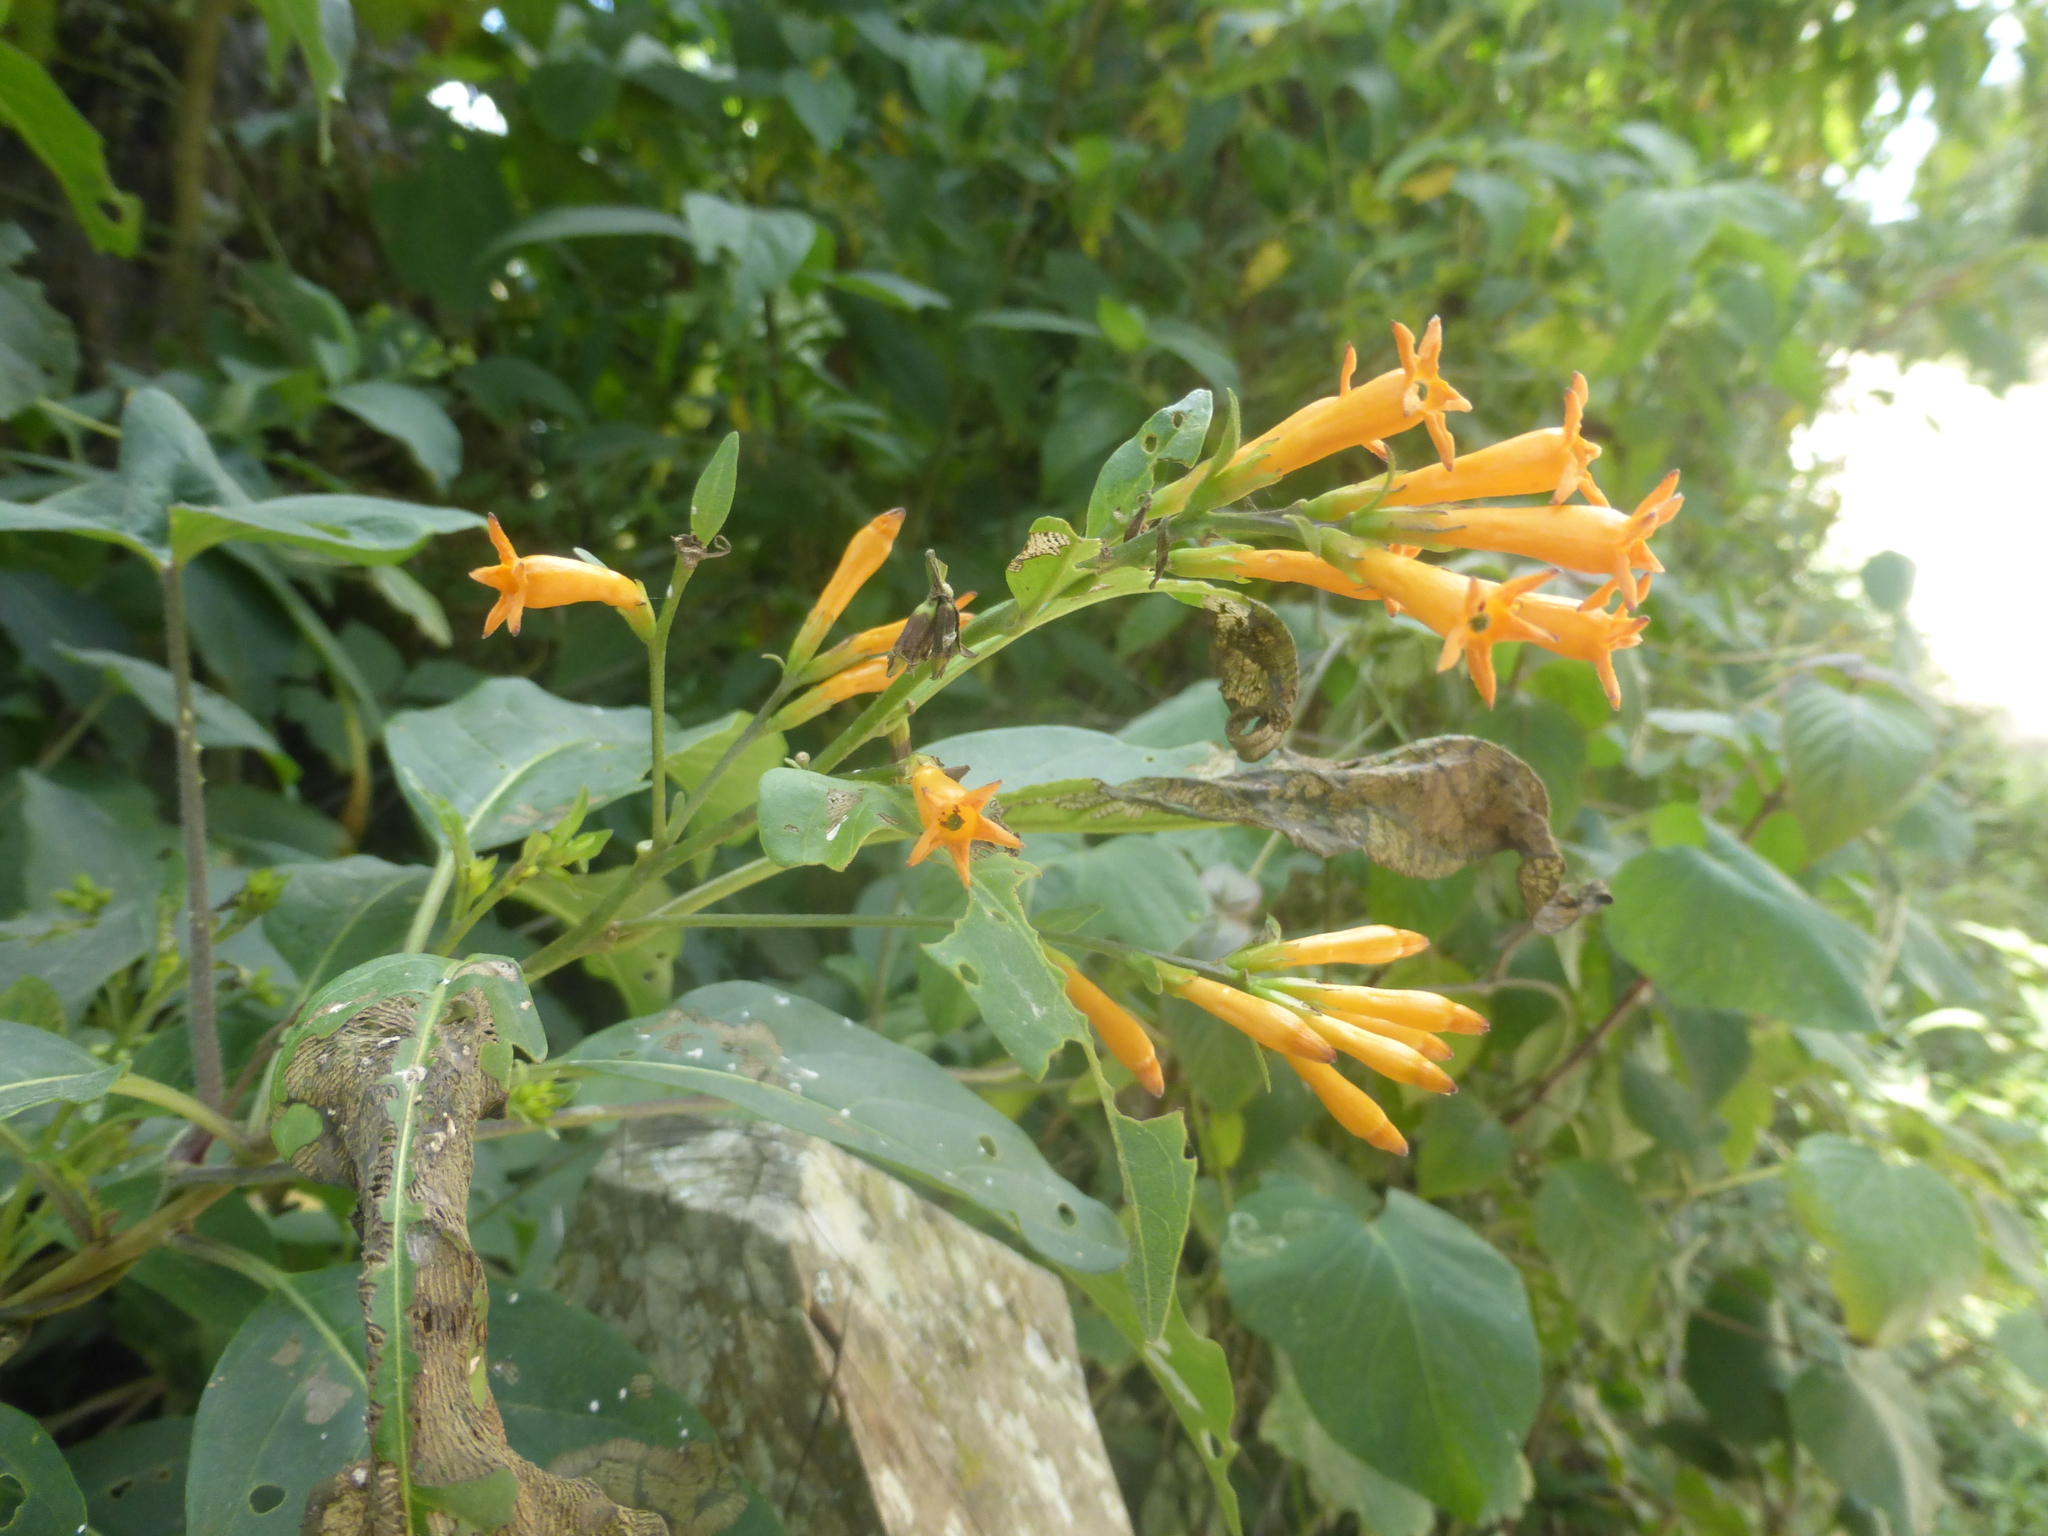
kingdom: Plantae
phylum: Tracheophyta
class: Magnoliopsida
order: Solanales
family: Solanaceae
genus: Cestrum
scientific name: Cestrum aurantiacum
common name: Orange cestrum
